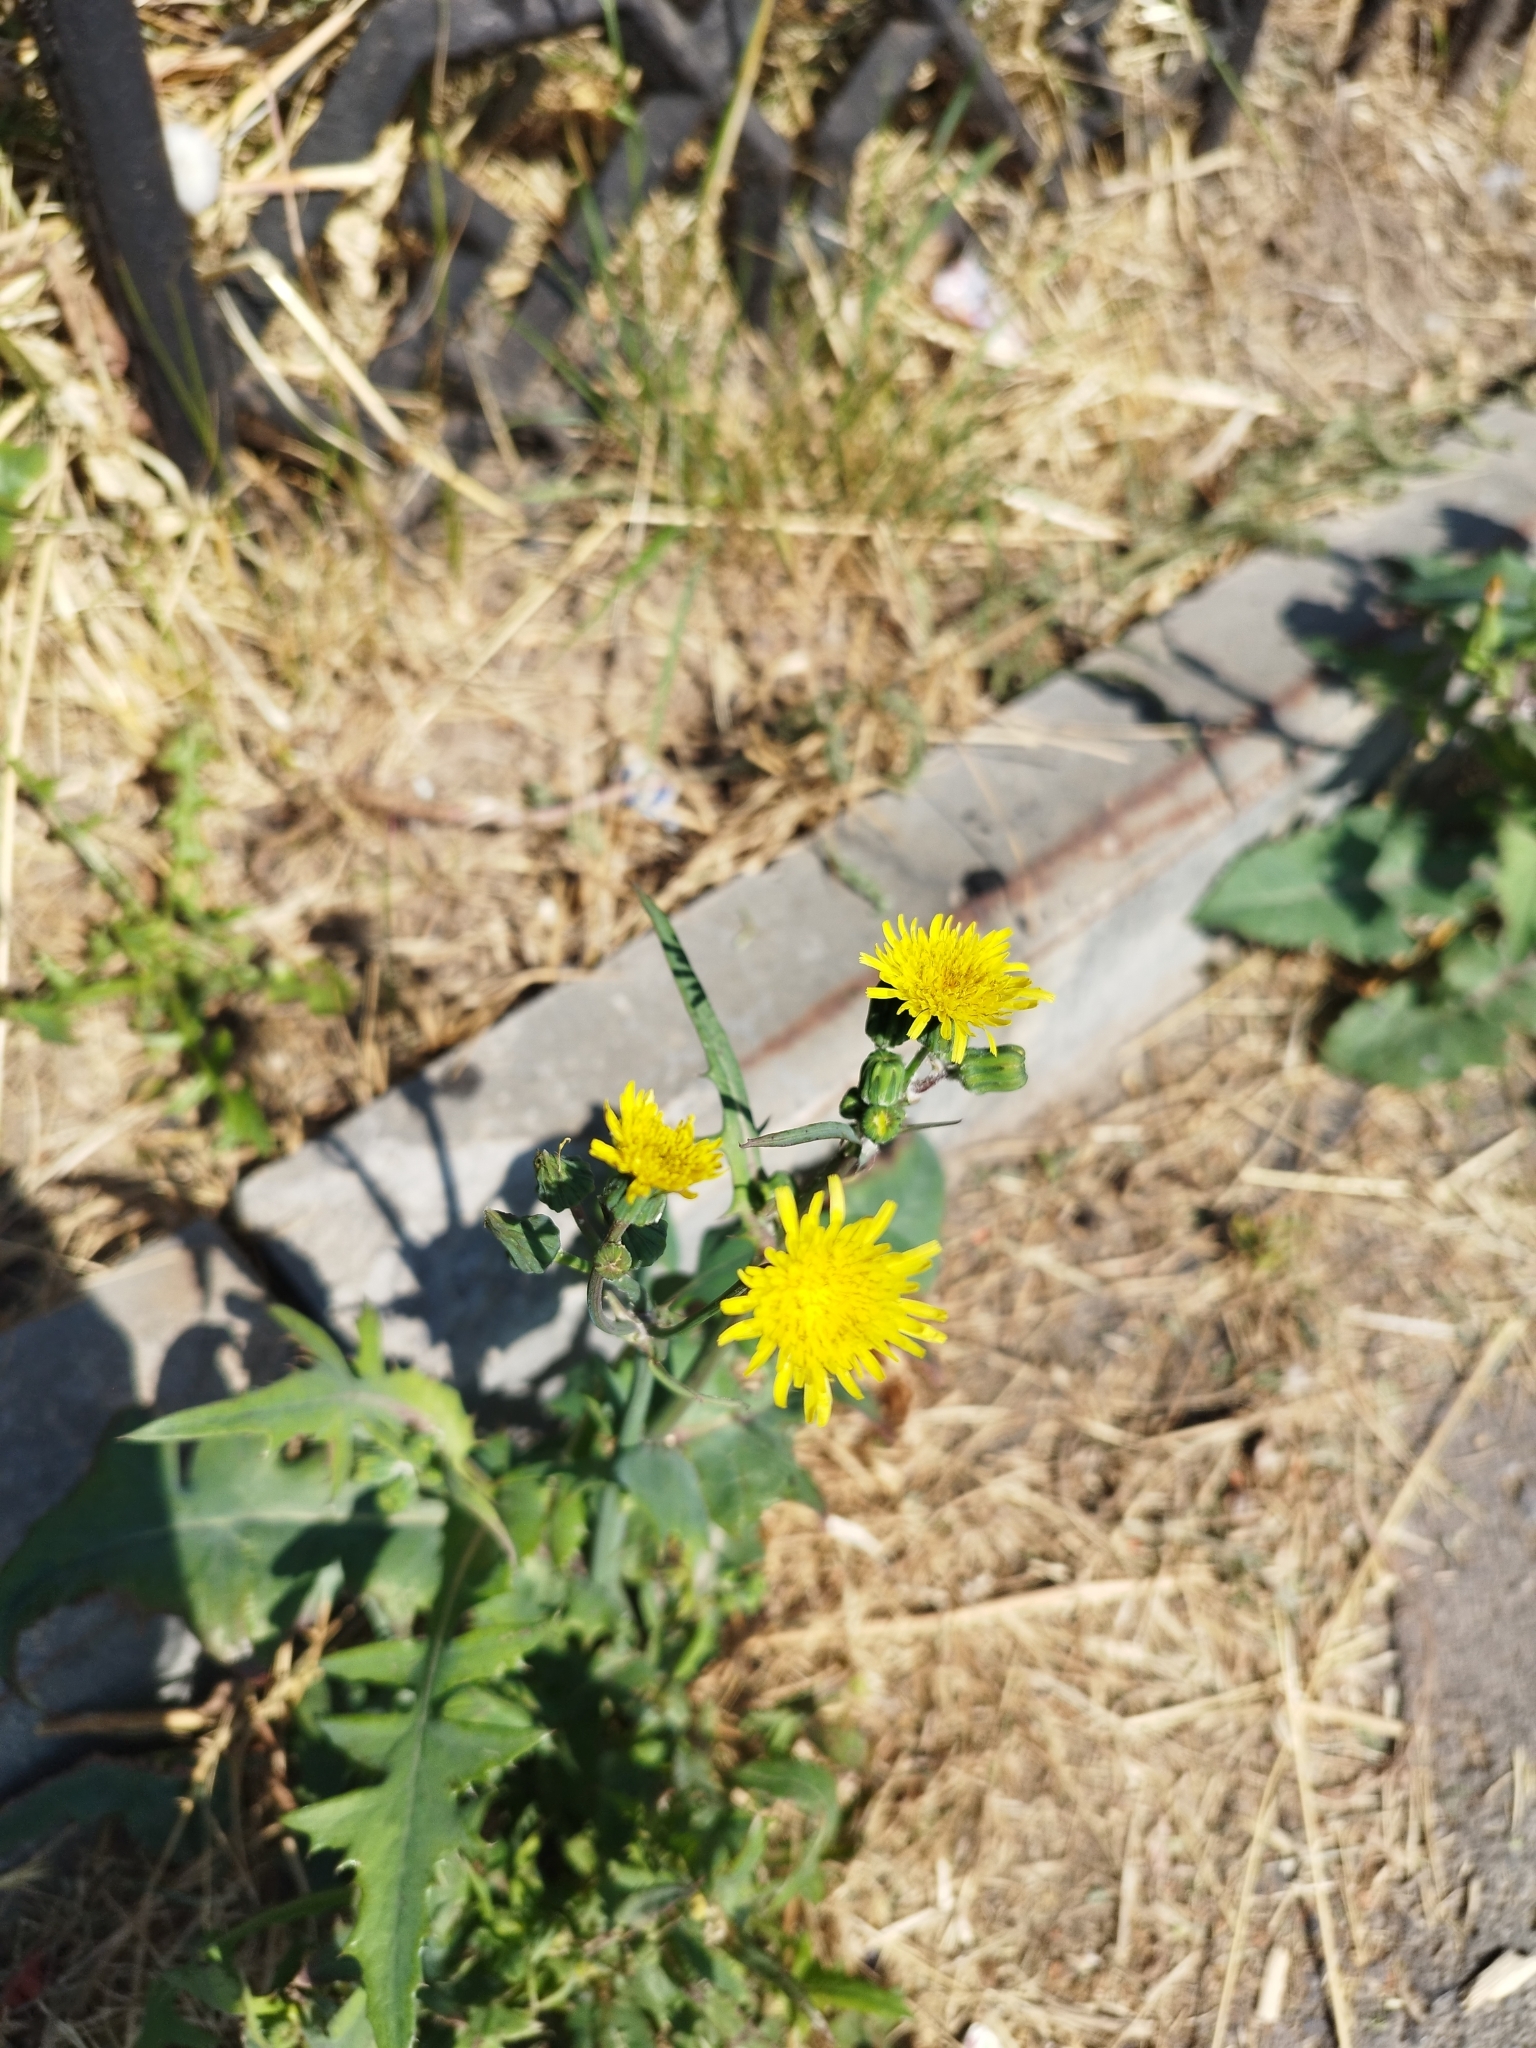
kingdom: Plantae
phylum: Tracheophyta
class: Magnoliopsida
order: Asterales
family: Asteraceae
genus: Sonchus
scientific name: Sonchus oleraceus
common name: Common sowthistle
